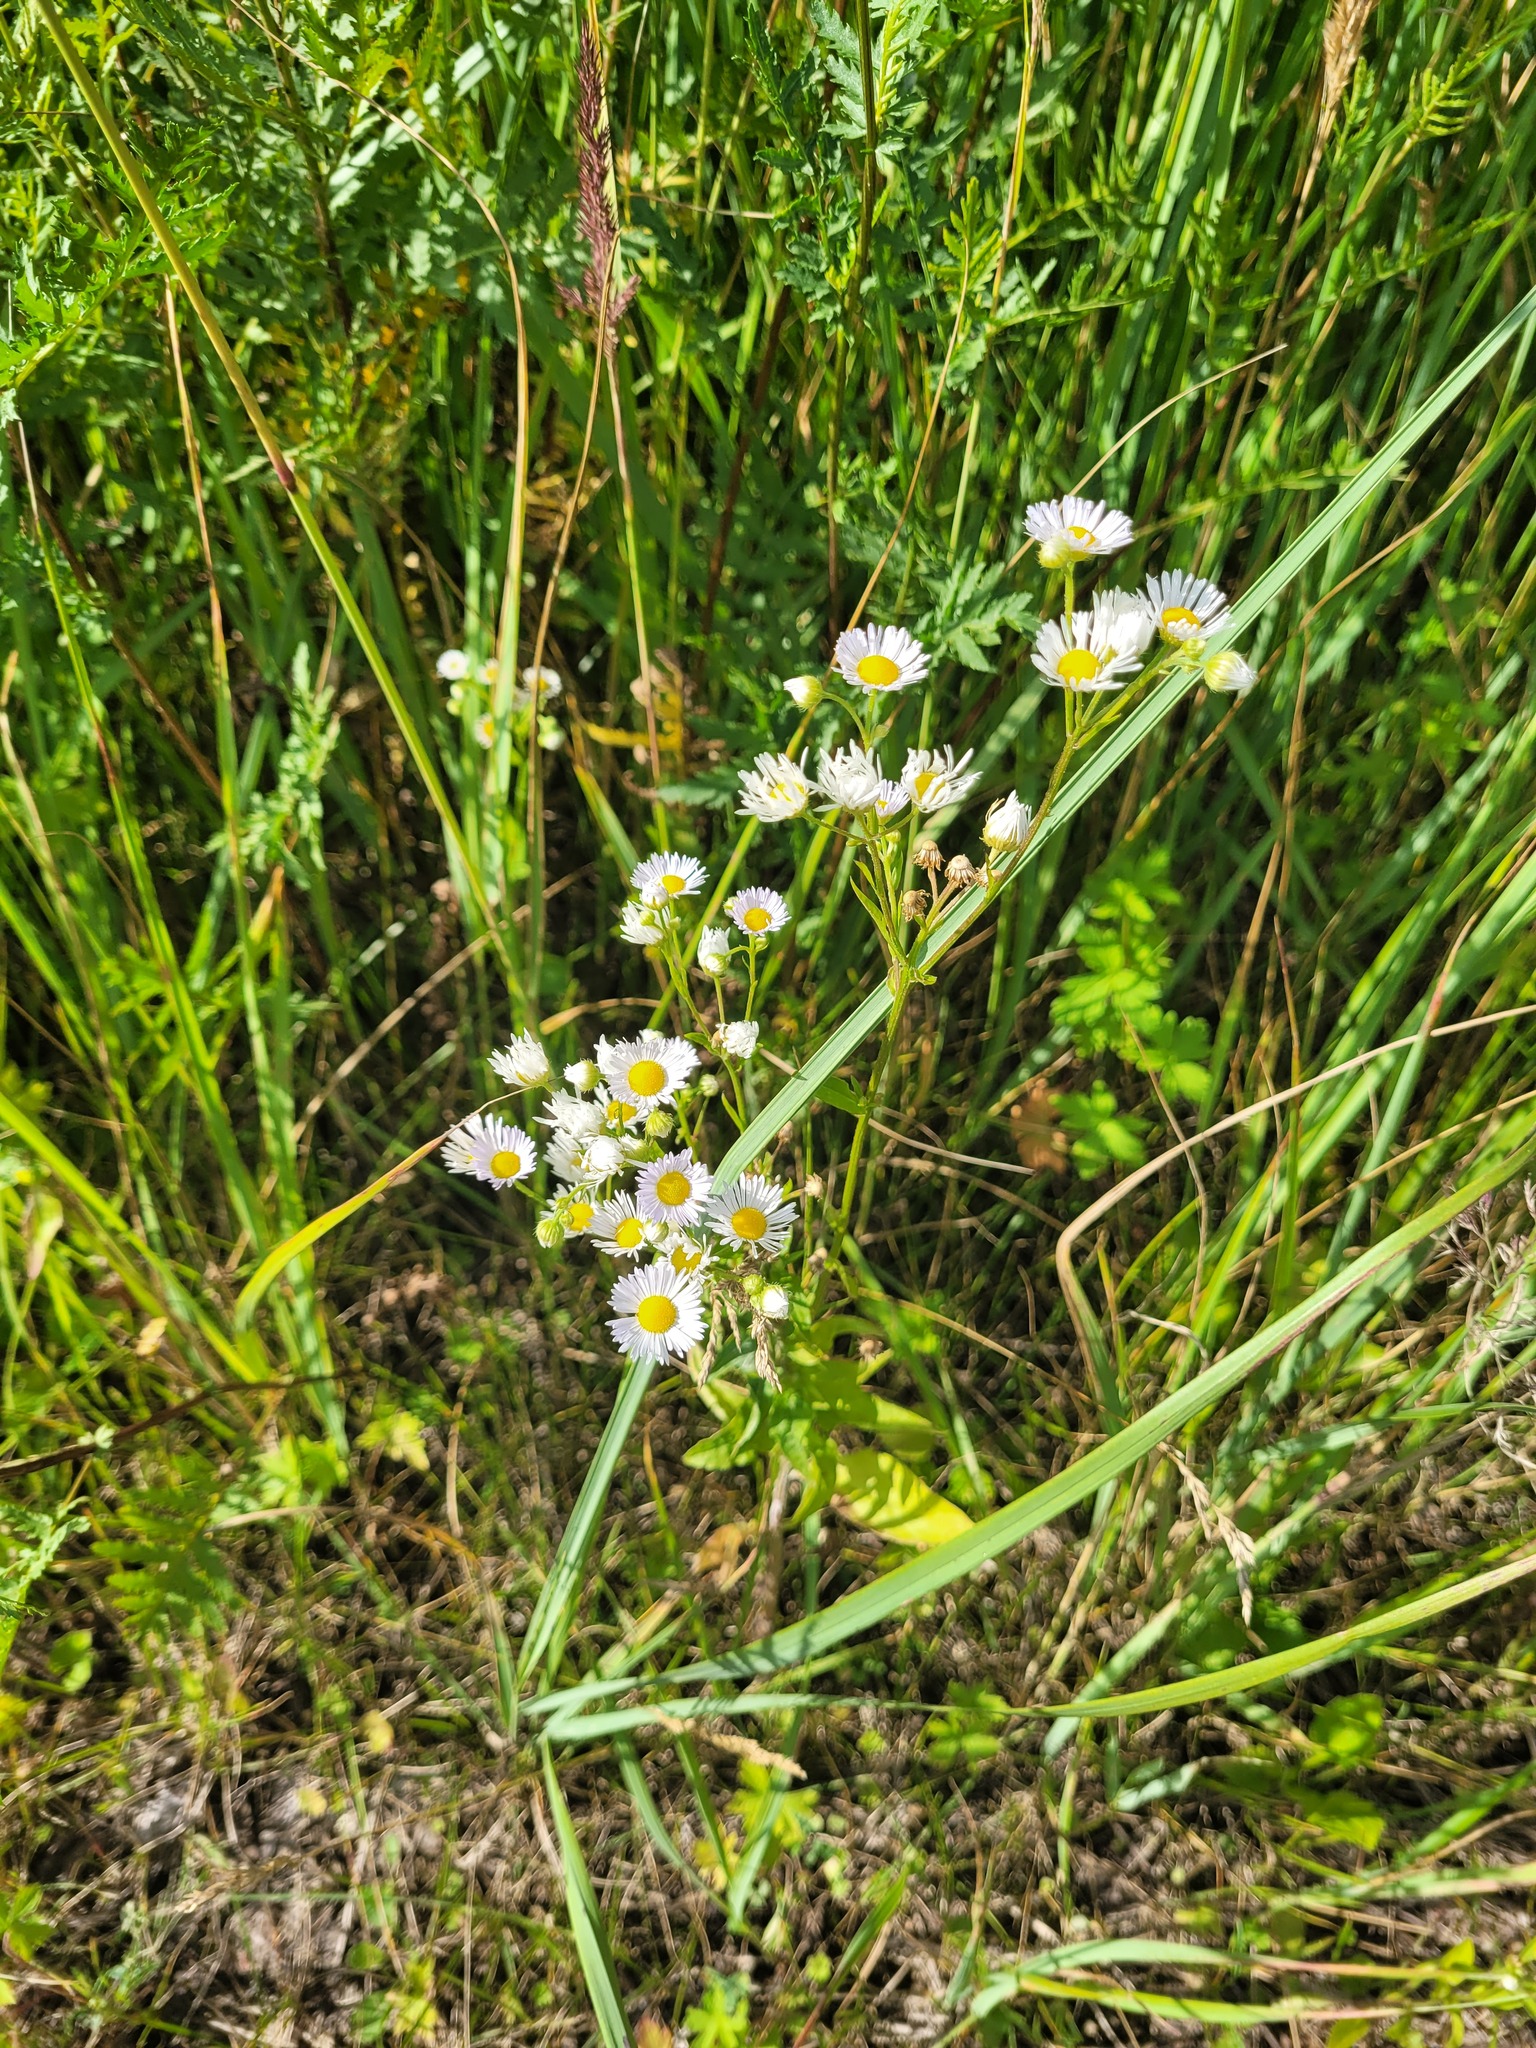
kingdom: Plantae
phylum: Tracheophyta
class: Magnoliopsida
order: Asterales
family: Asteraceae
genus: Erigeron
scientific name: Erigeron annuus
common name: Tall fleabane
